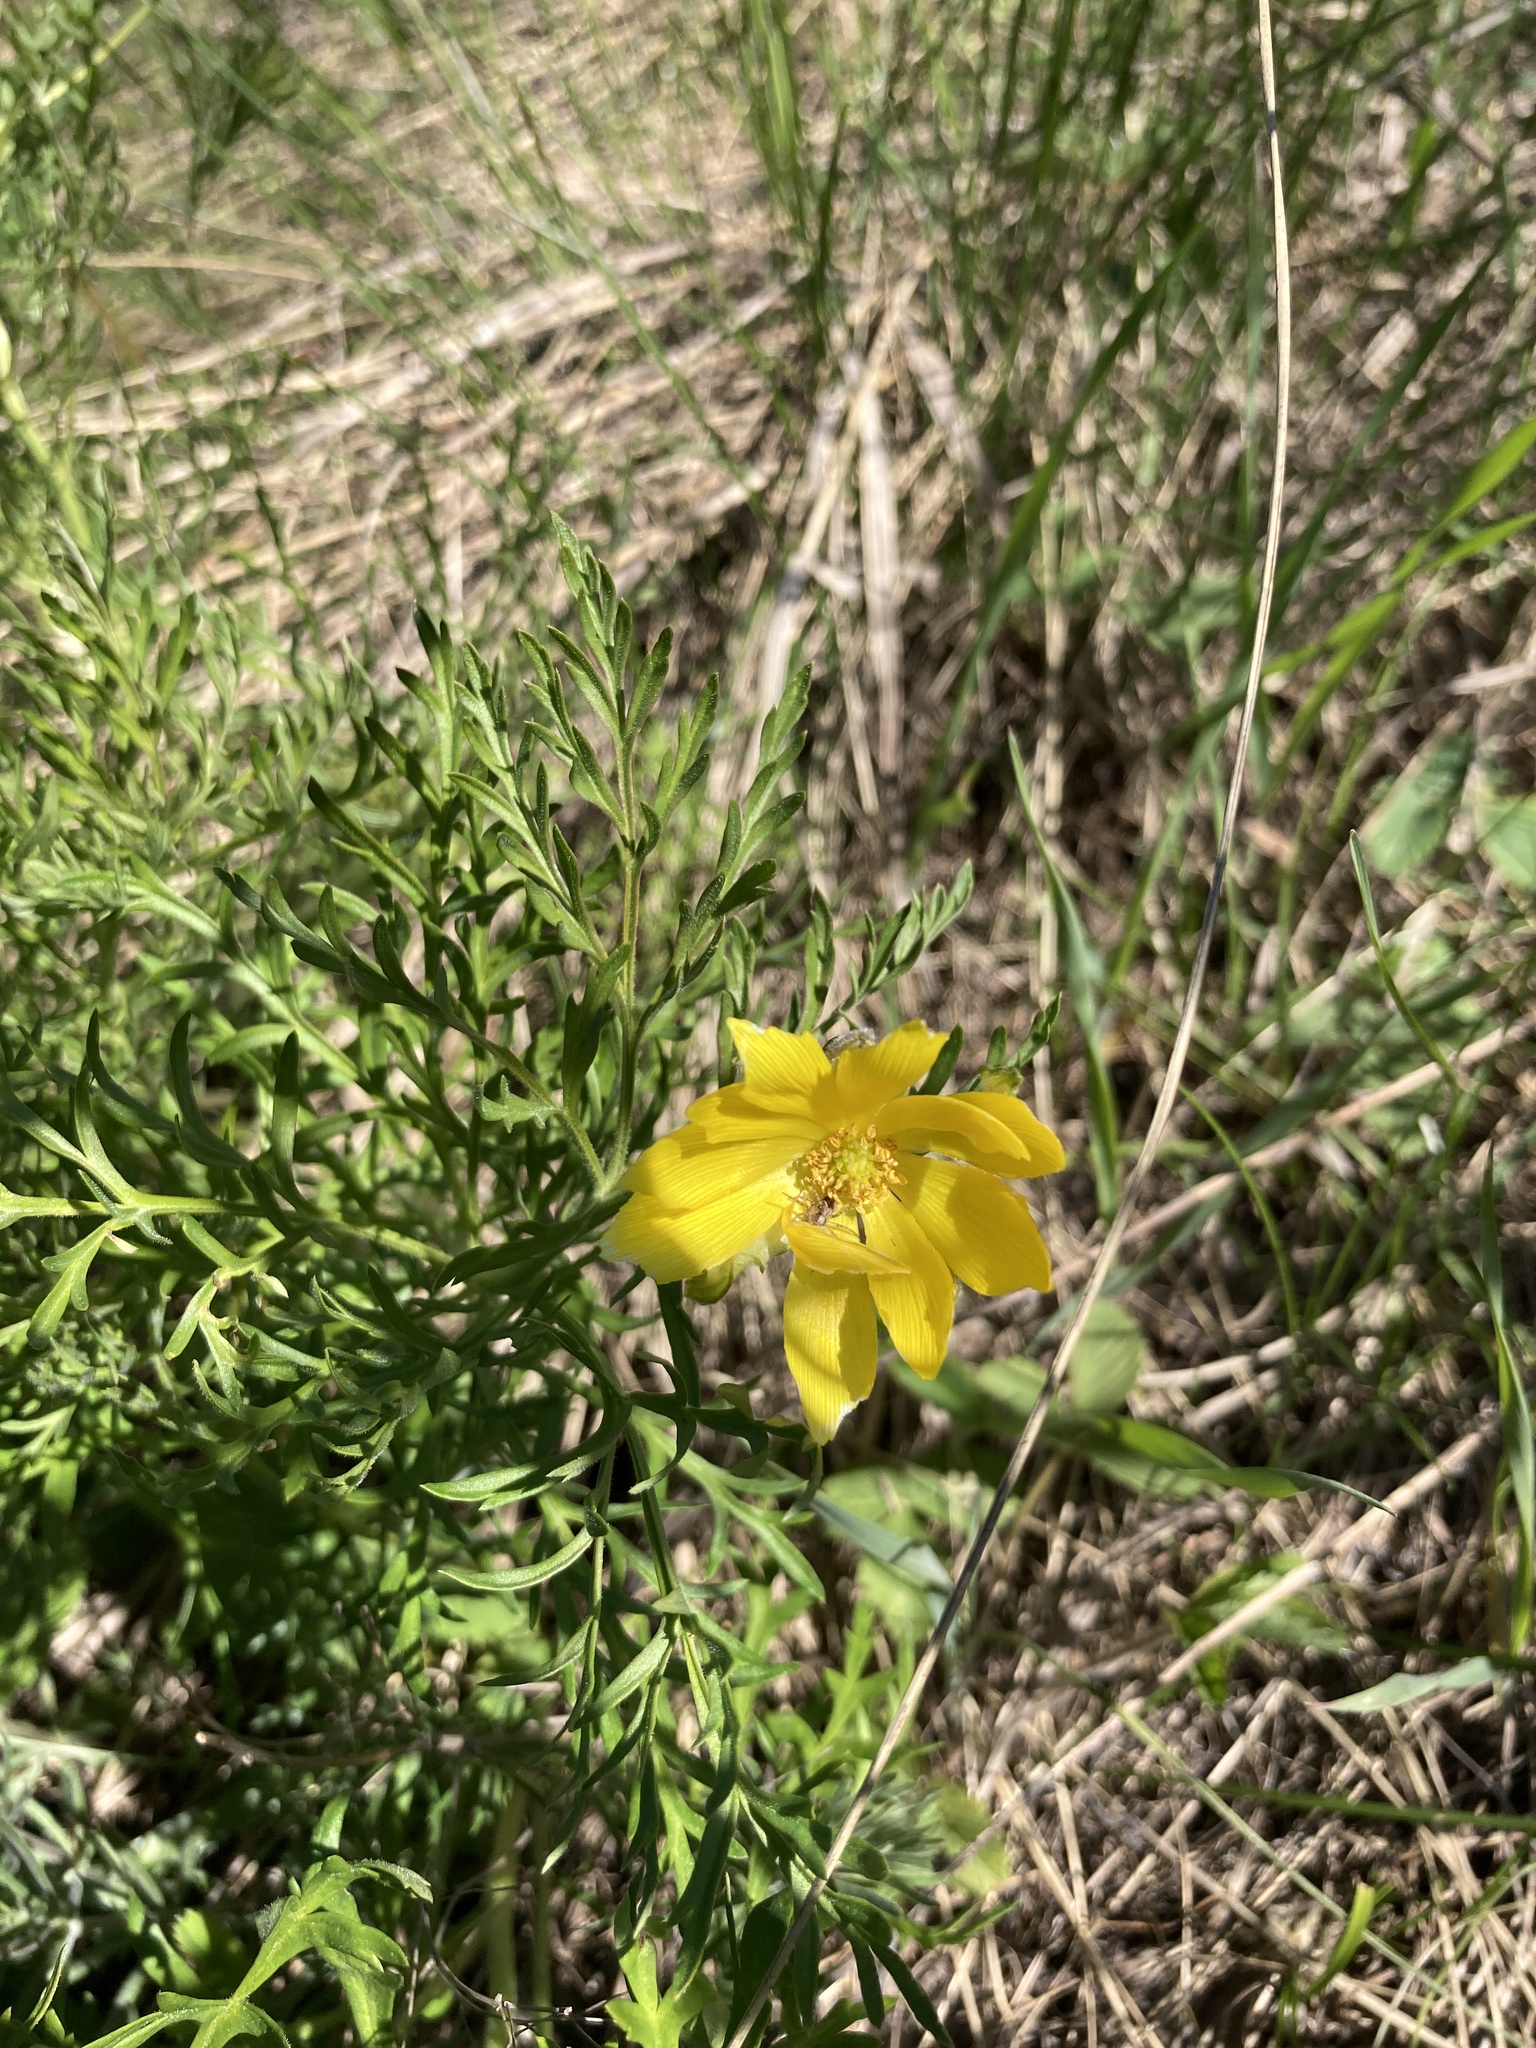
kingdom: Plantae
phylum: Tracheophyta
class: Magnoliopsida
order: Ranunculales
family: Ranunculaceae
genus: Adonis
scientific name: Adonis volgensis
